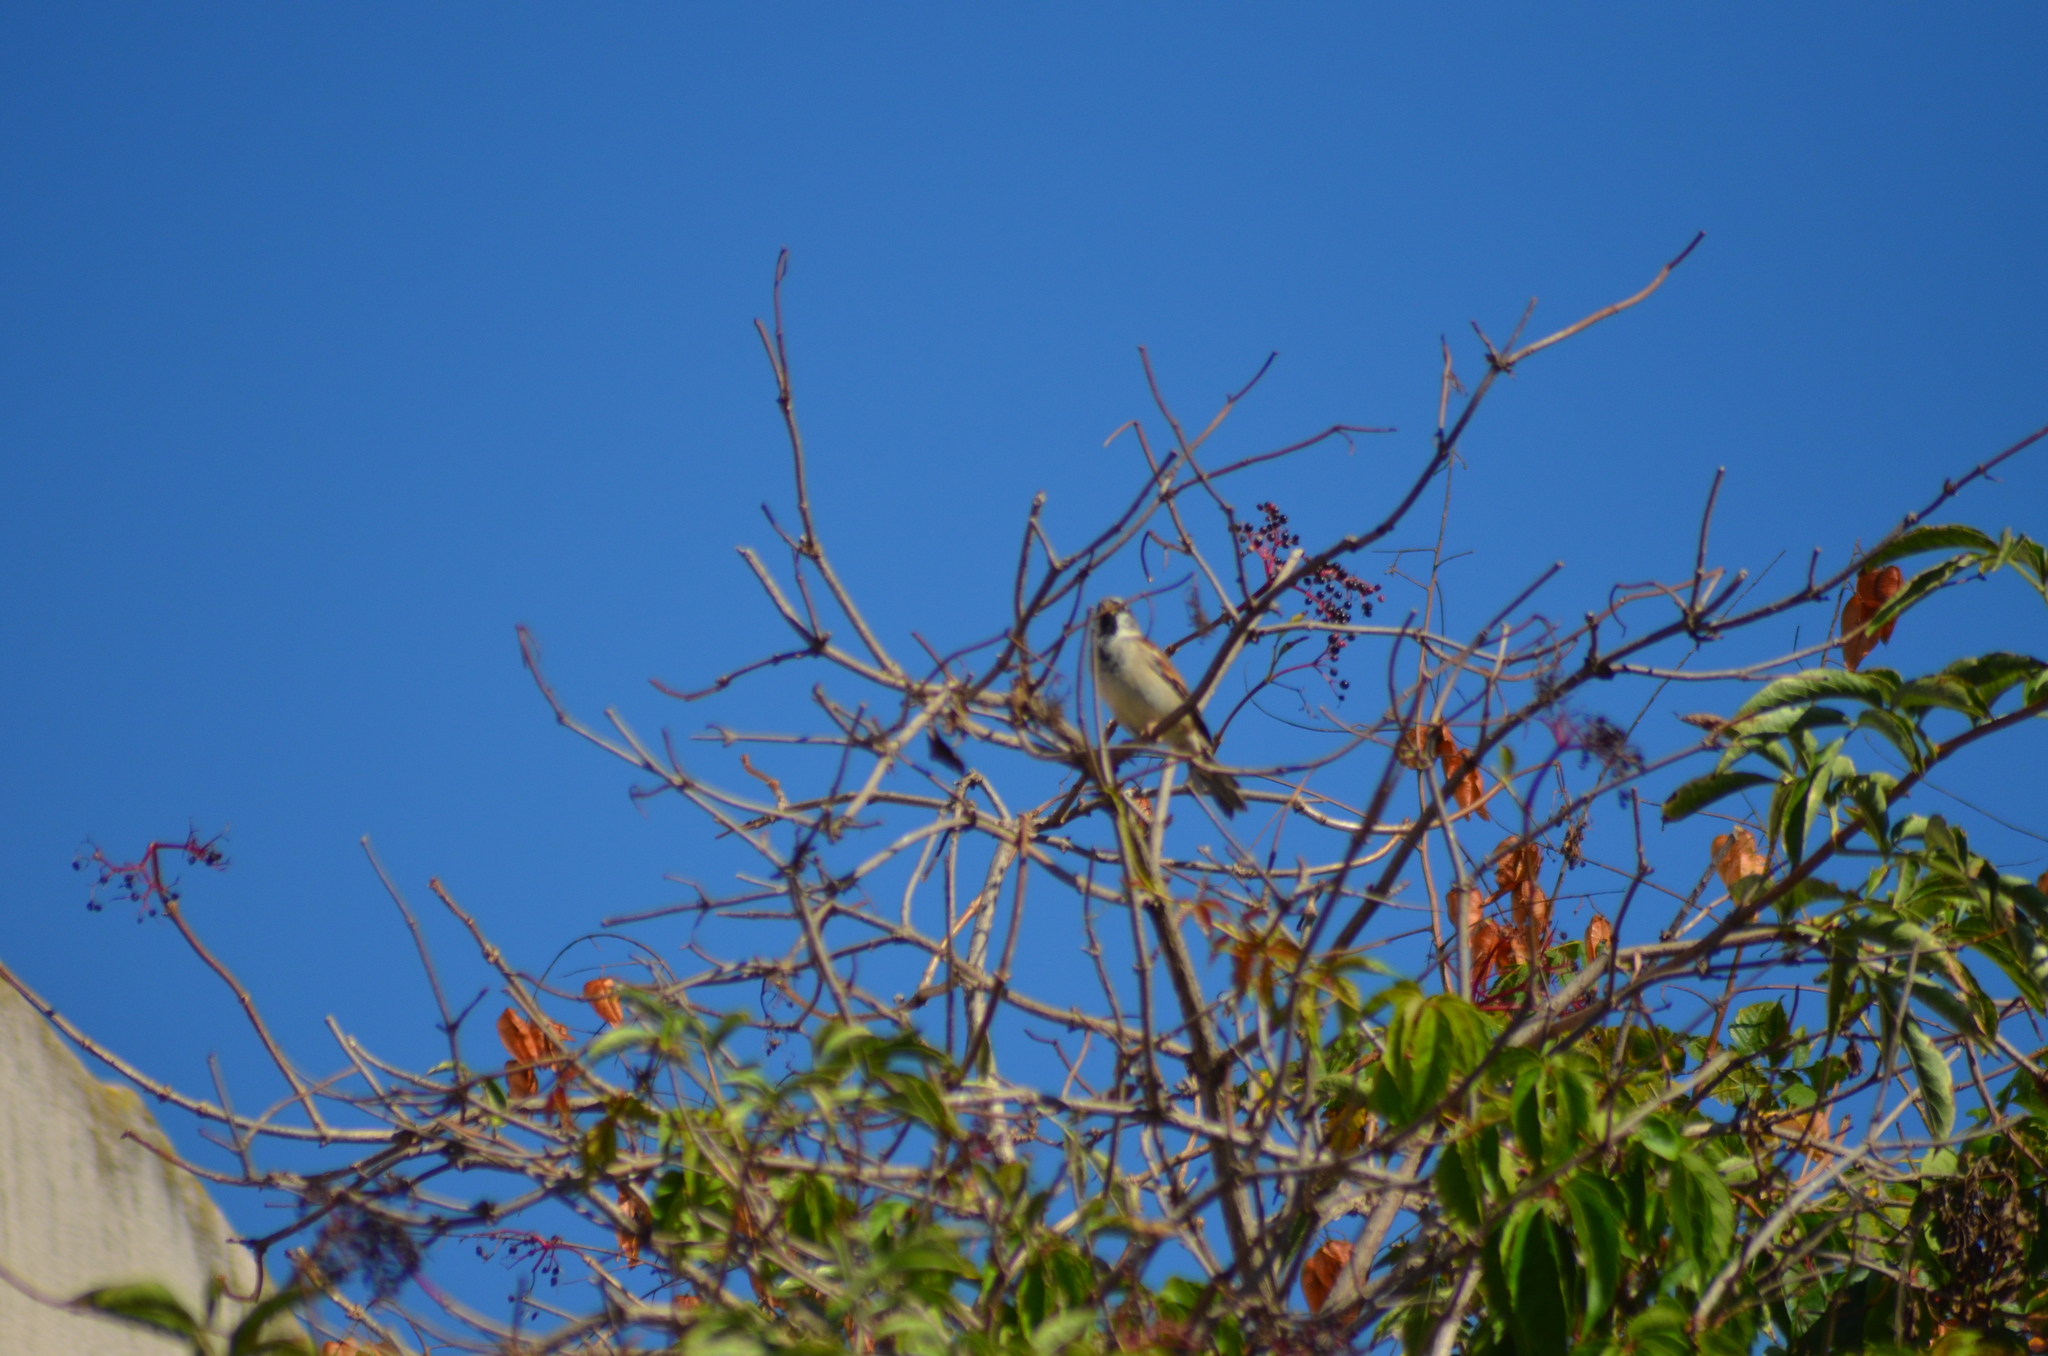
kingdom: Animalia
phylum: Chordata
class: Aves
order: Passeriformes
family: Passeridae
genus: Passer
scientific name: Passer domesticus
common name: House sparrow
